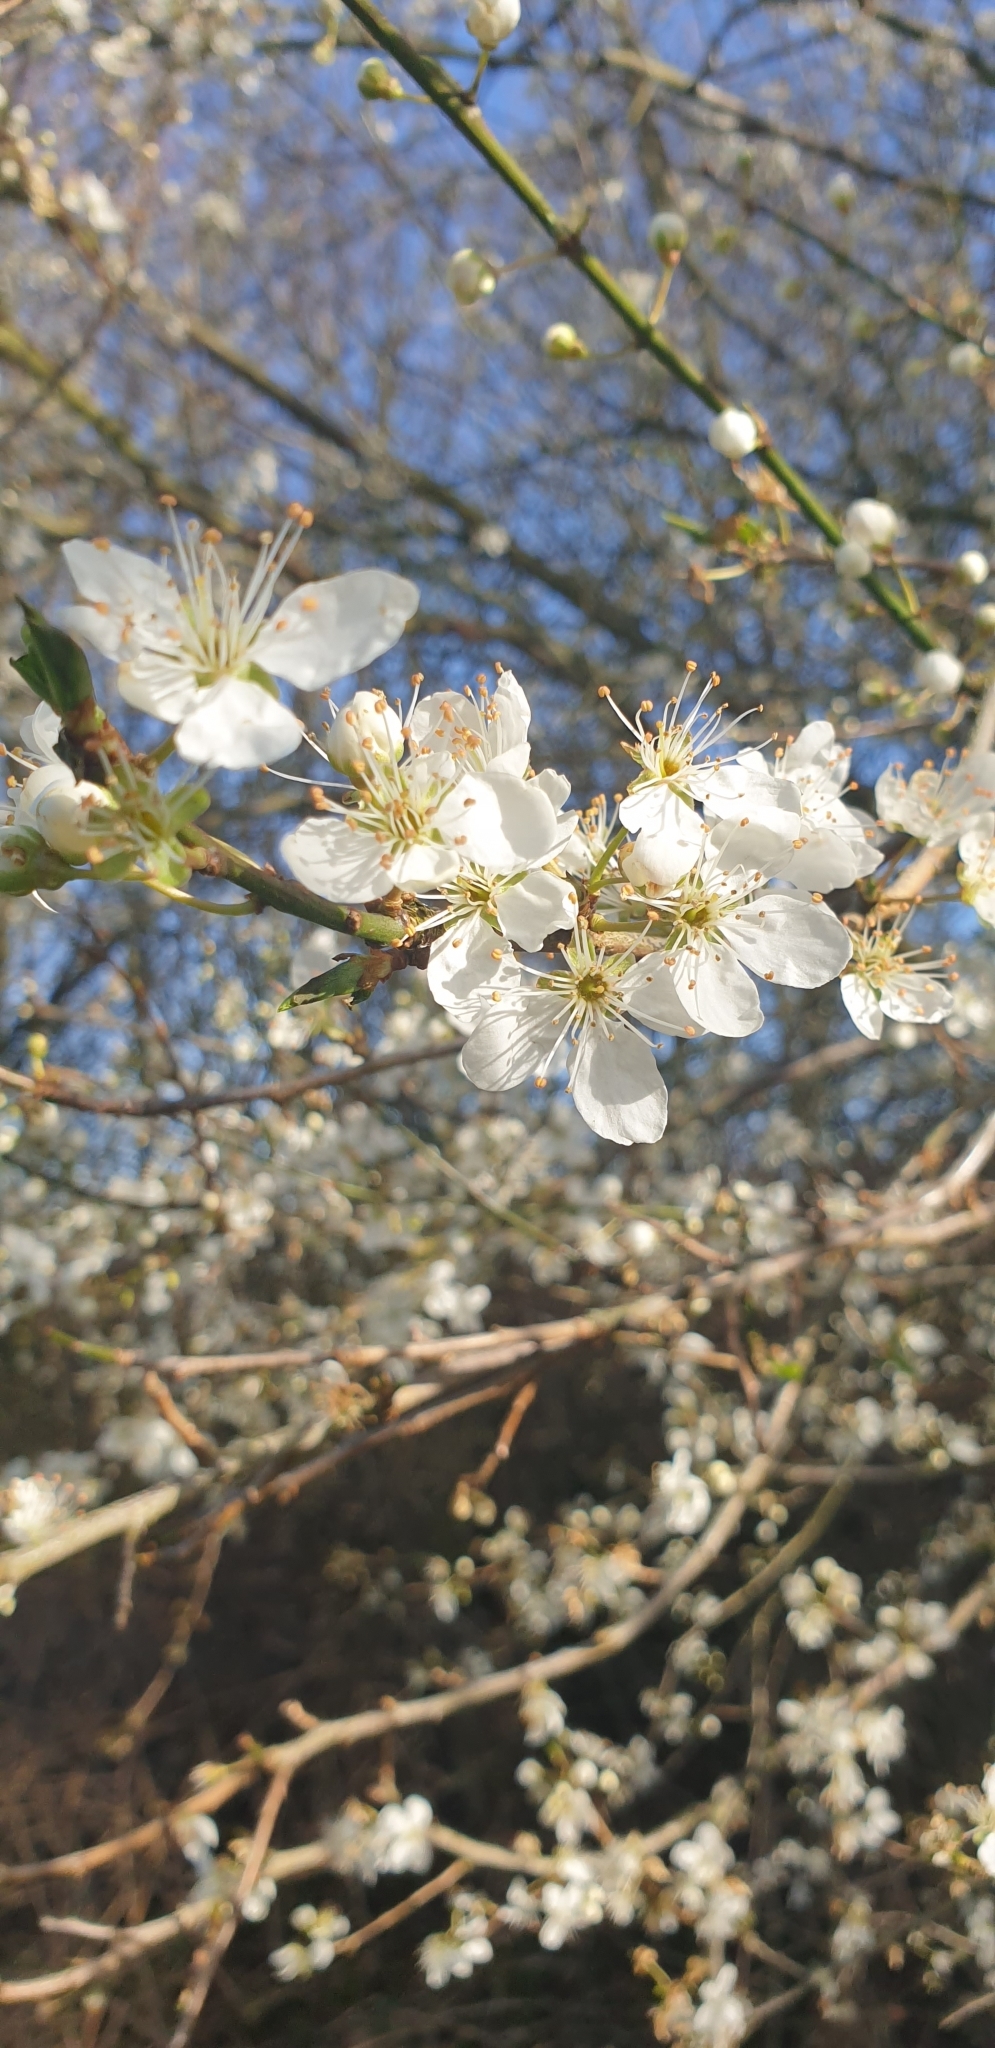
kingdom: Plantae
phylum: Tracheophyta
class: Magnoliopsida
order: Rosales
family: Rosaceae
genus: Prunus
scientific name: Prunus cerasifera
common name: Cherry plum
